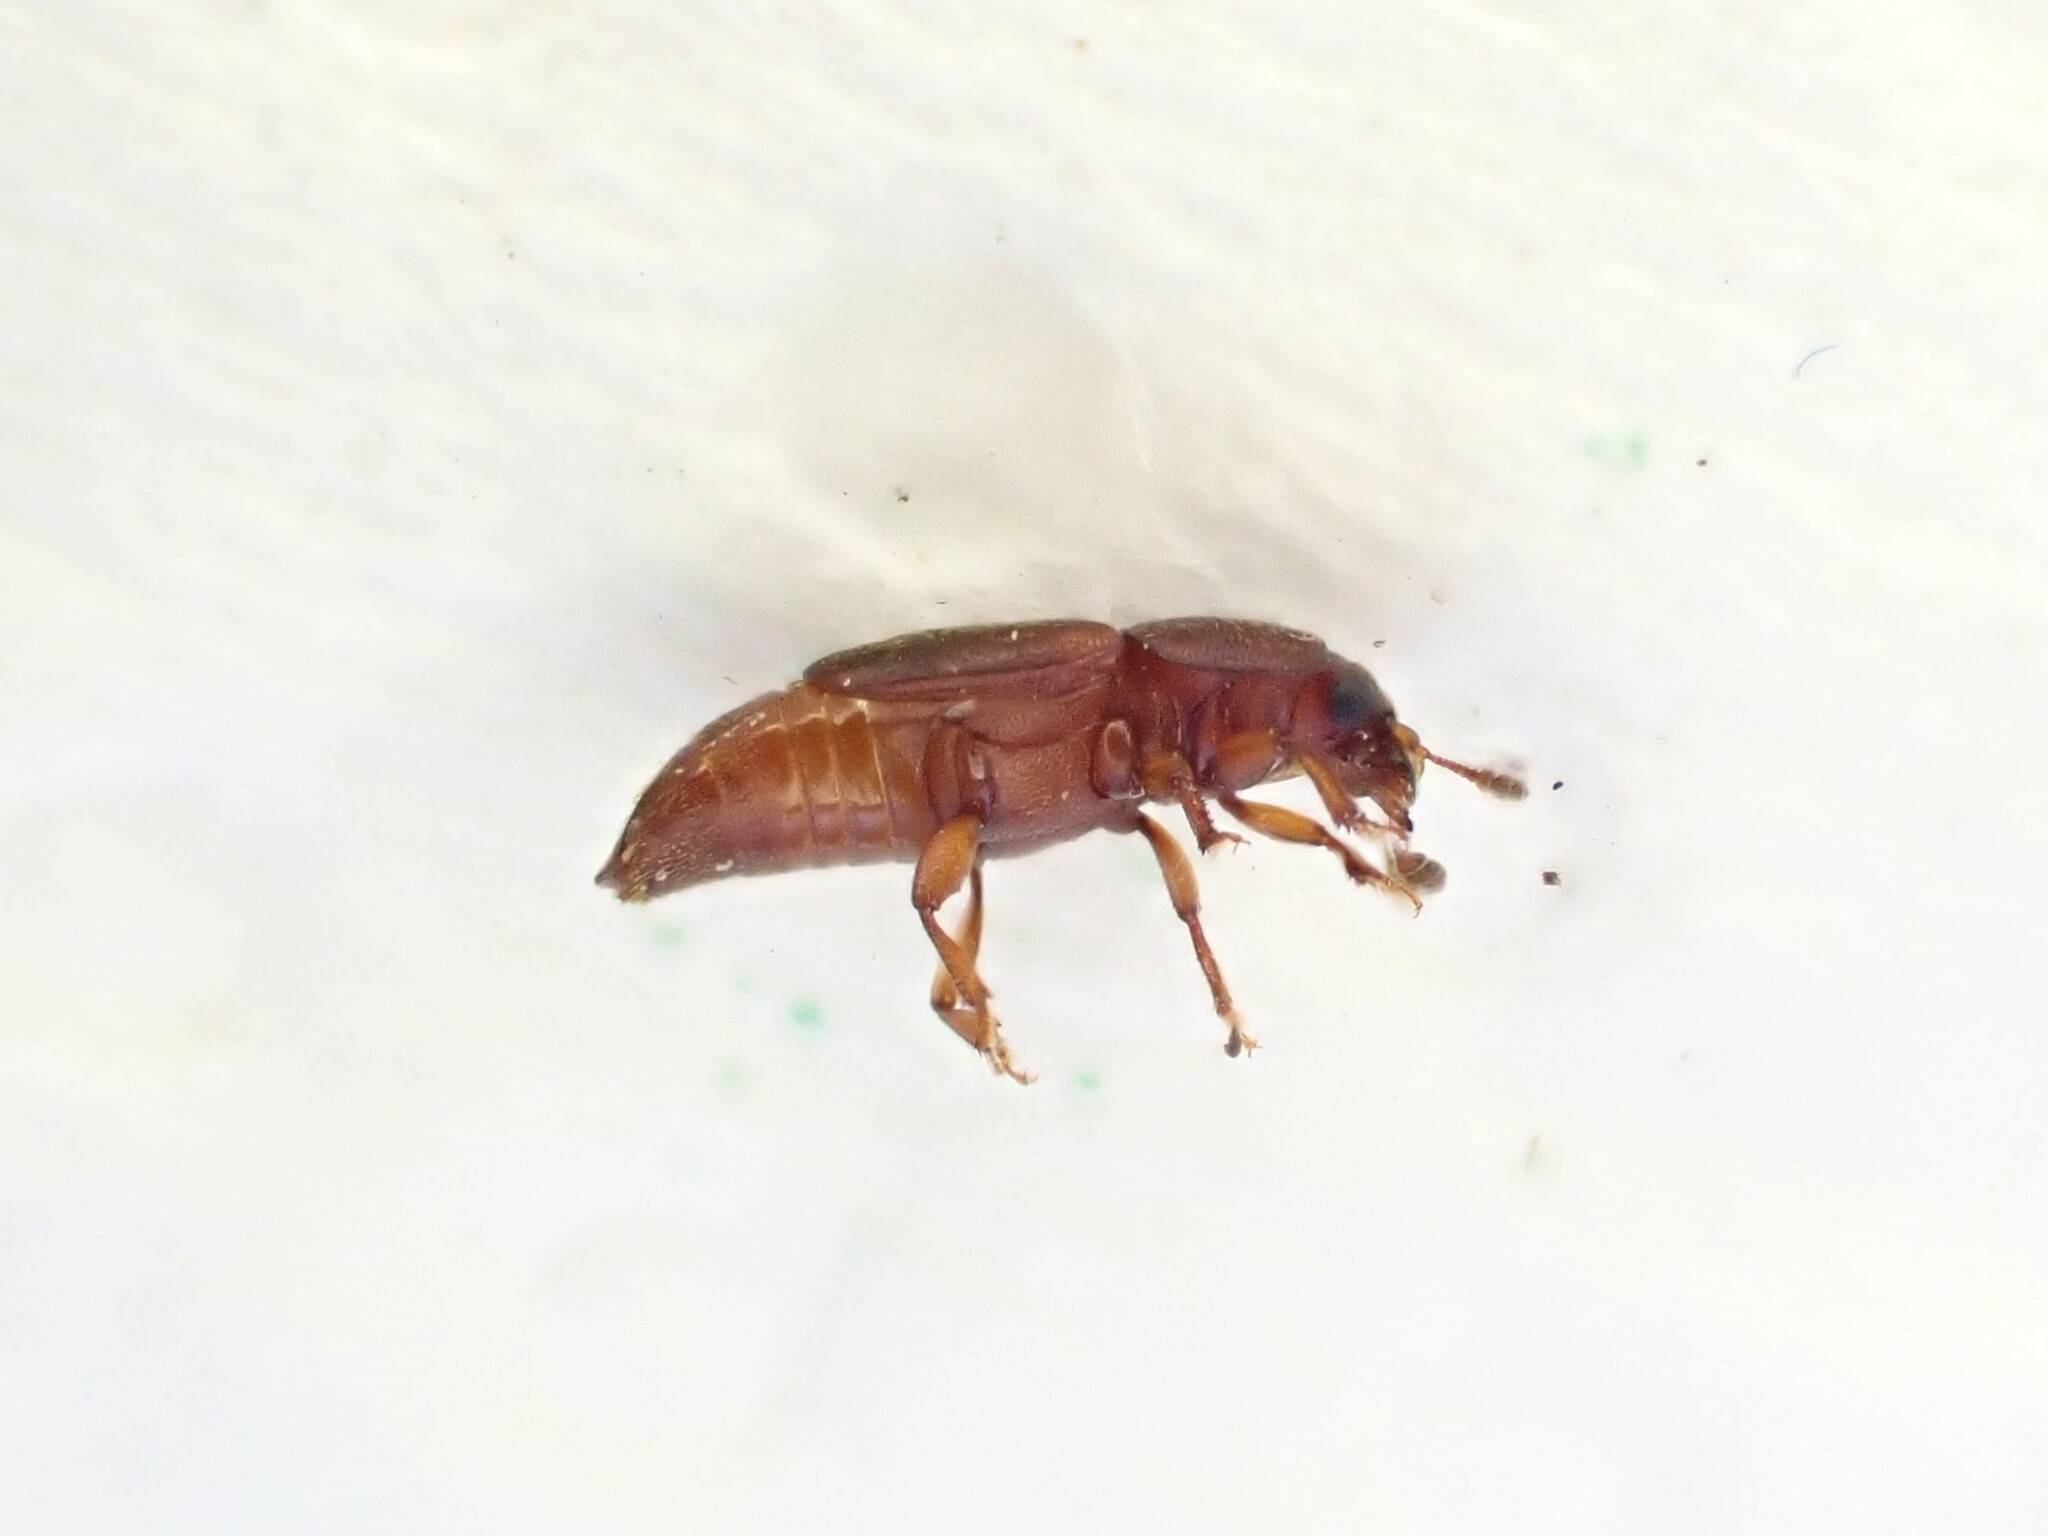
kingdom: Animalia
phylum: Arthropoda
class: Insecta
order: Coleoptera
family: Nitidulidae
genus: Carpophilus
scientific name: Carpophilus gaveni
